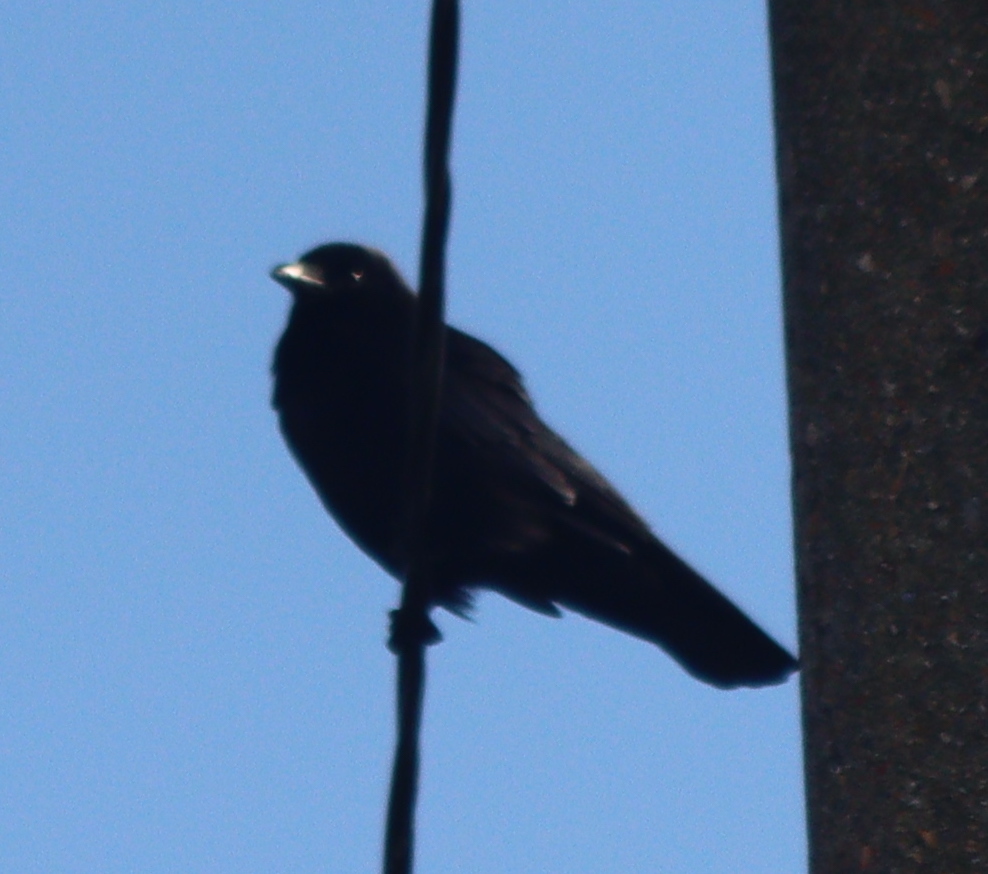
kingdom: Animalia
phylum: Chordata
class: Aves
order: Passeriformes
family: Corvidae
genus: Corvus
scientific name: Corvus corone
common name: Carrion crow
